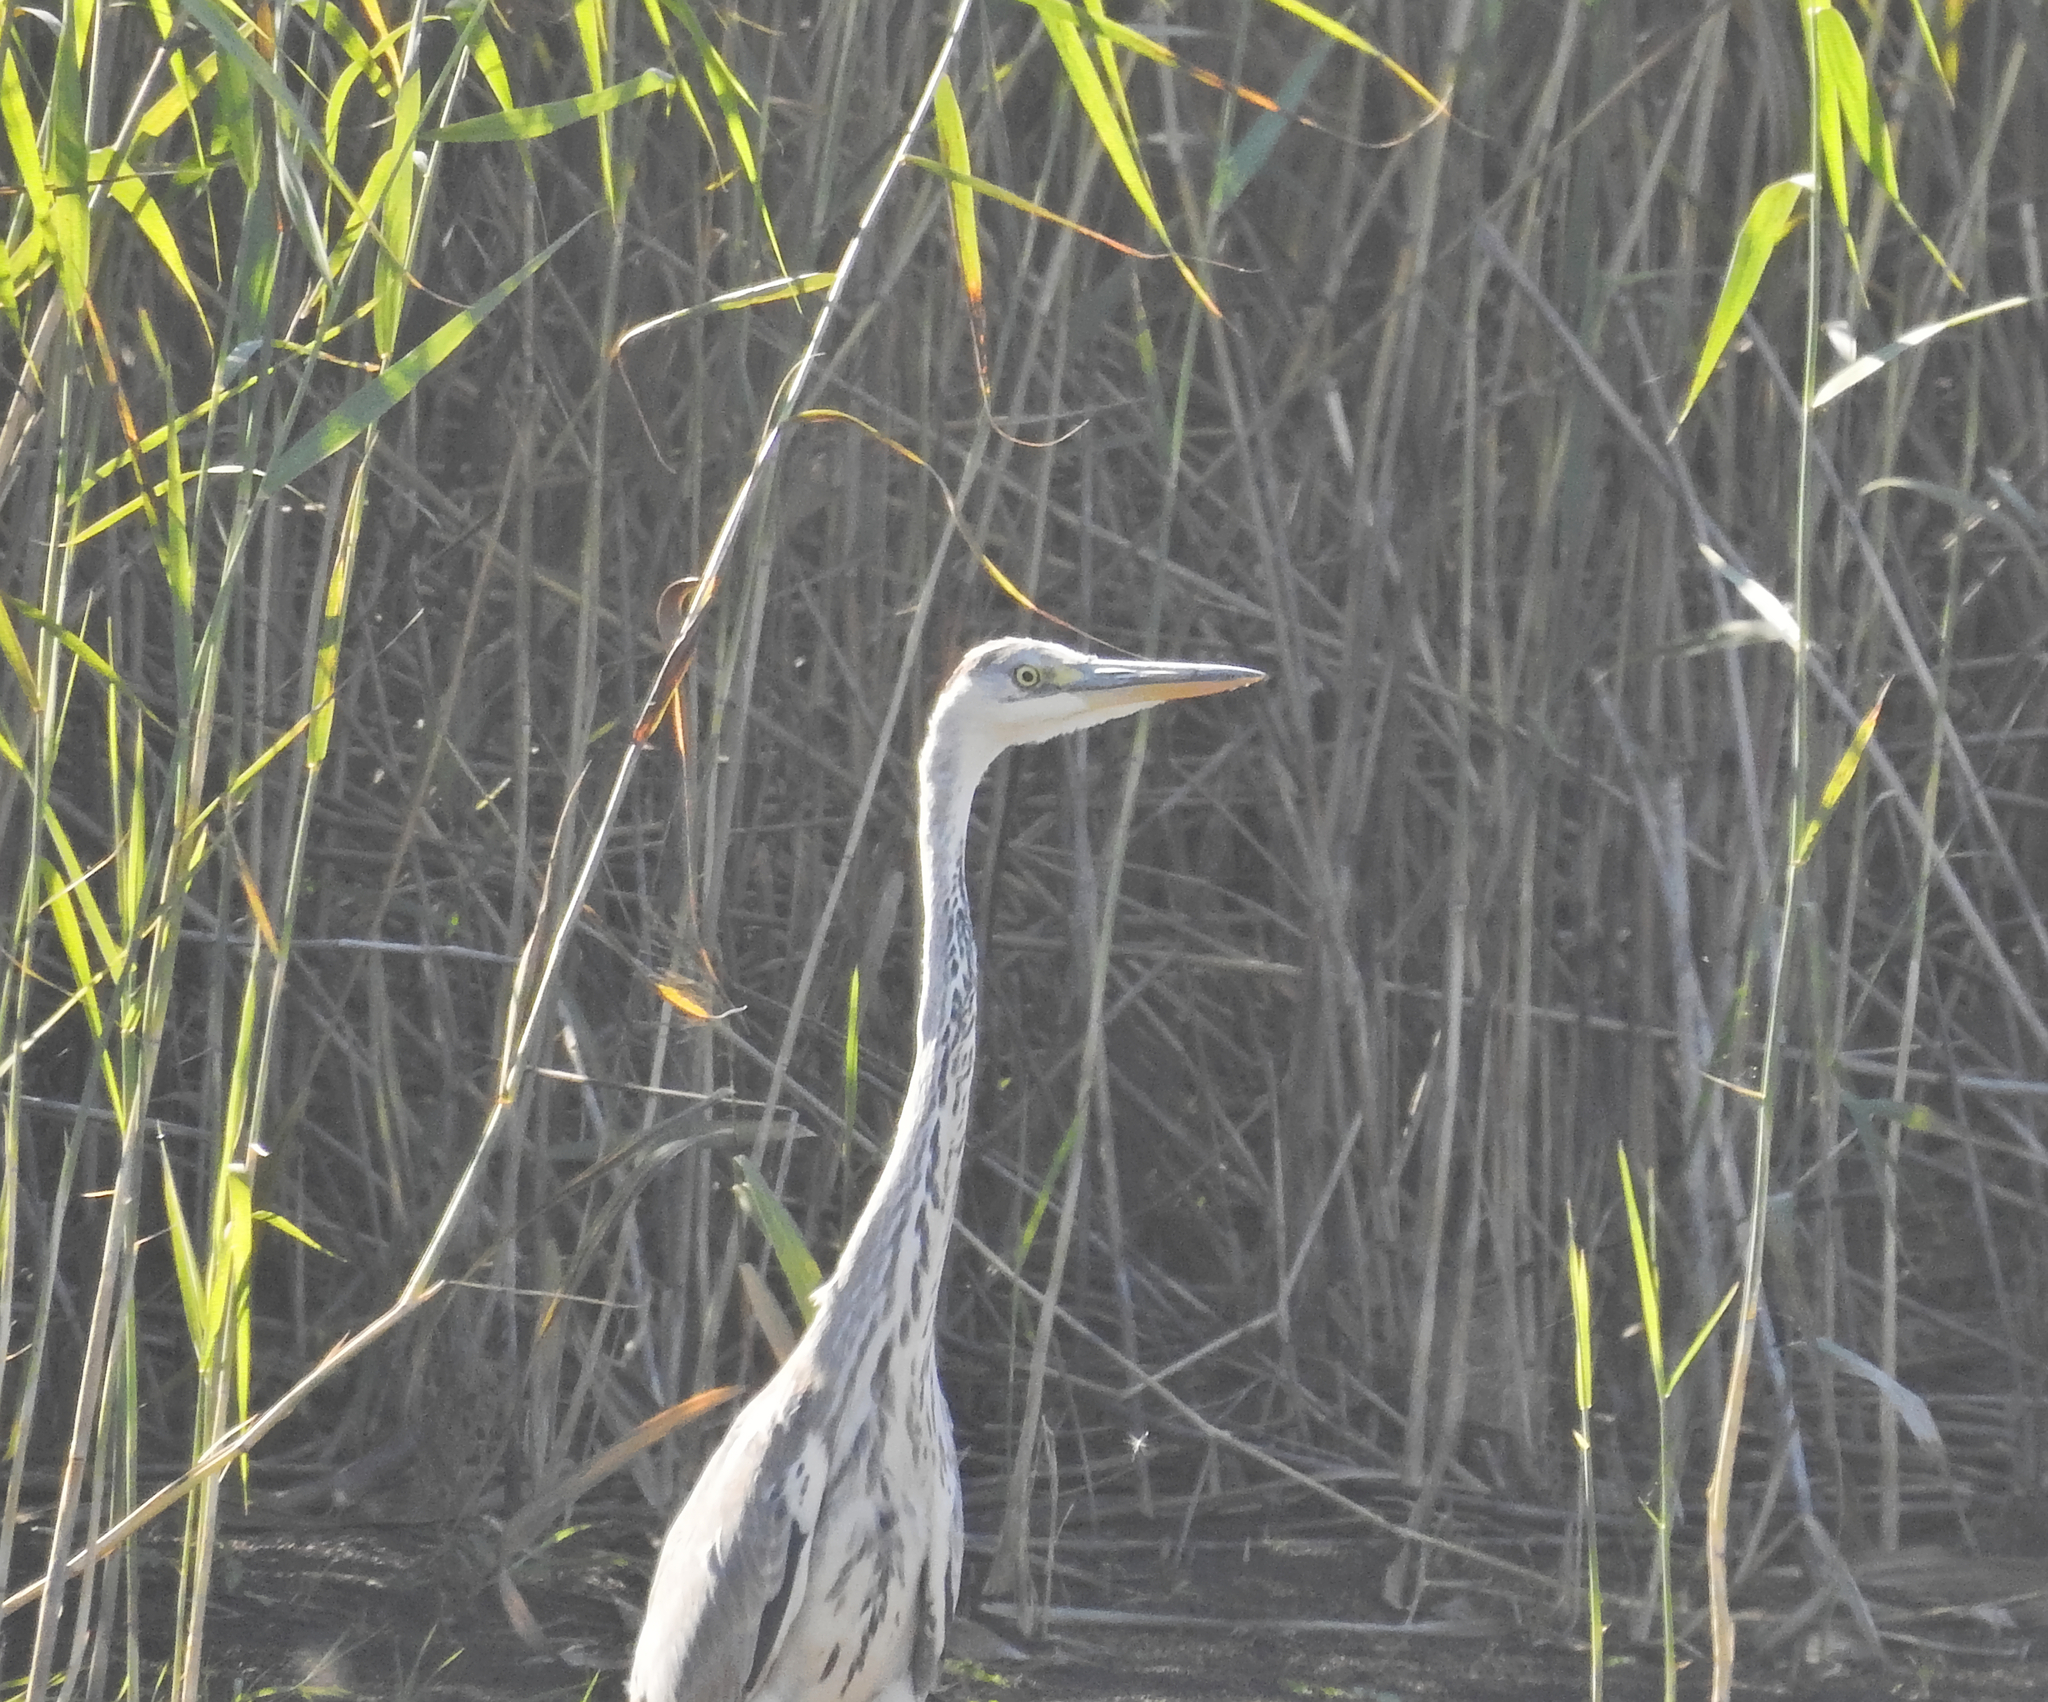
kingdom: Animalia
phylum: Chordata
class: Aves
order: Pelecaniformes
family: Ardeidae
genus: Ardea
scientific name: Ardea cinerea
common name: Grey heron
